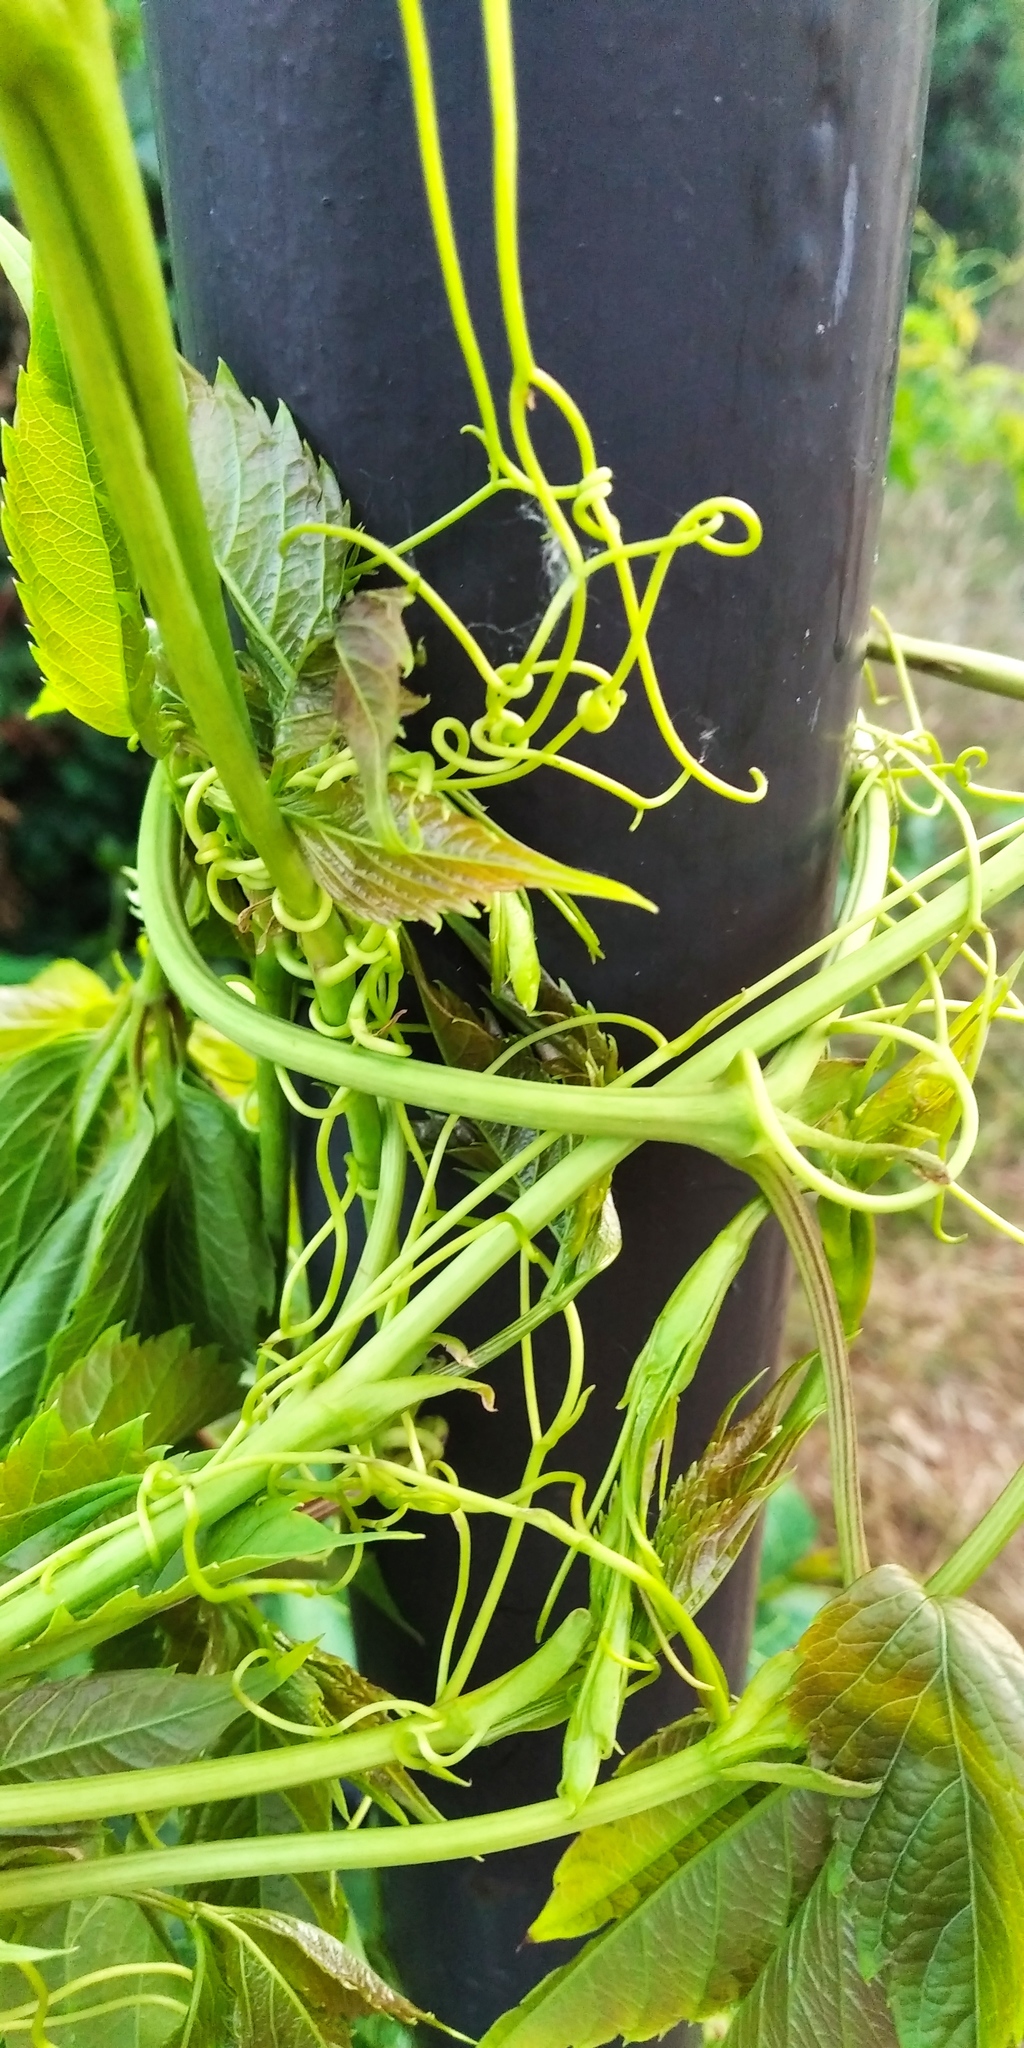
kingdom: Plantae
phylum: Tracheophyta
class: Magnoliopsida
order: Vitales
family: Vitaceae
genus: Parthenocissus
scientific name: Parthenocissus inserta
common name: False virginia-creeper
